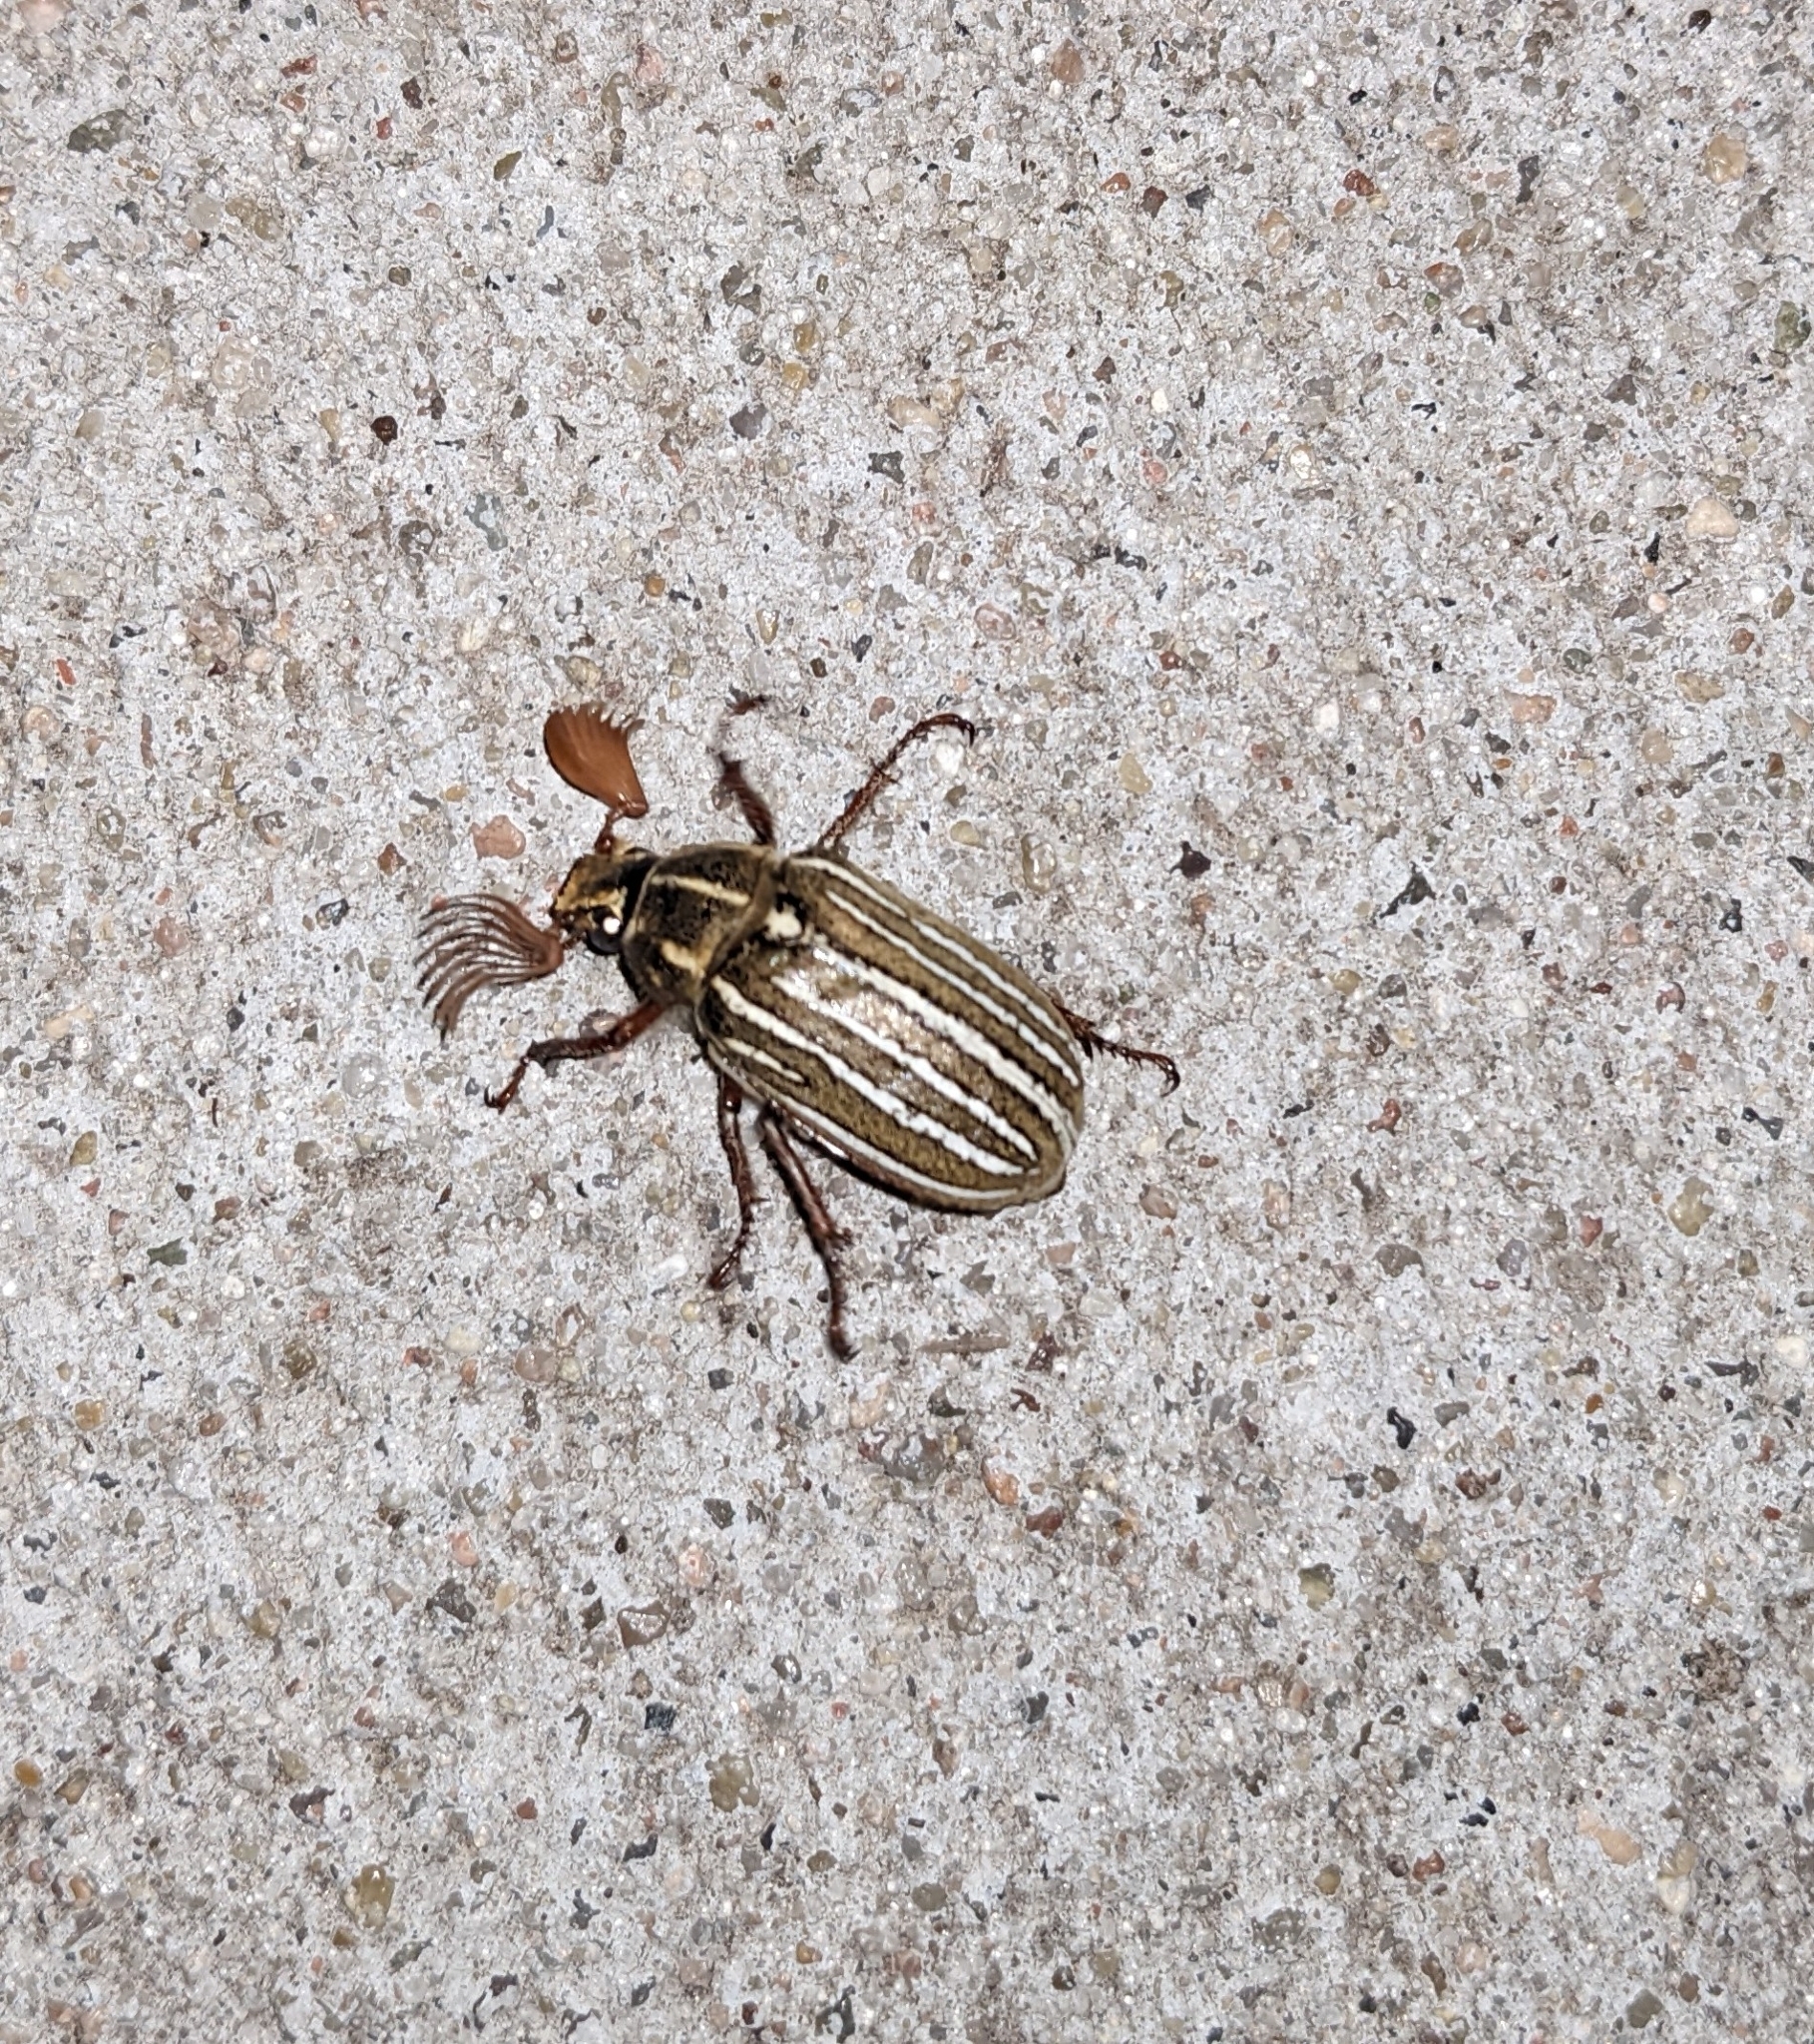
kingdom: Animalia
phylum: Arthropoda
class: Insecta
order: Coleoptera
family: Scarabaeidae
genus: Polyphylla
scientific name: Polyphylla decemlineata
